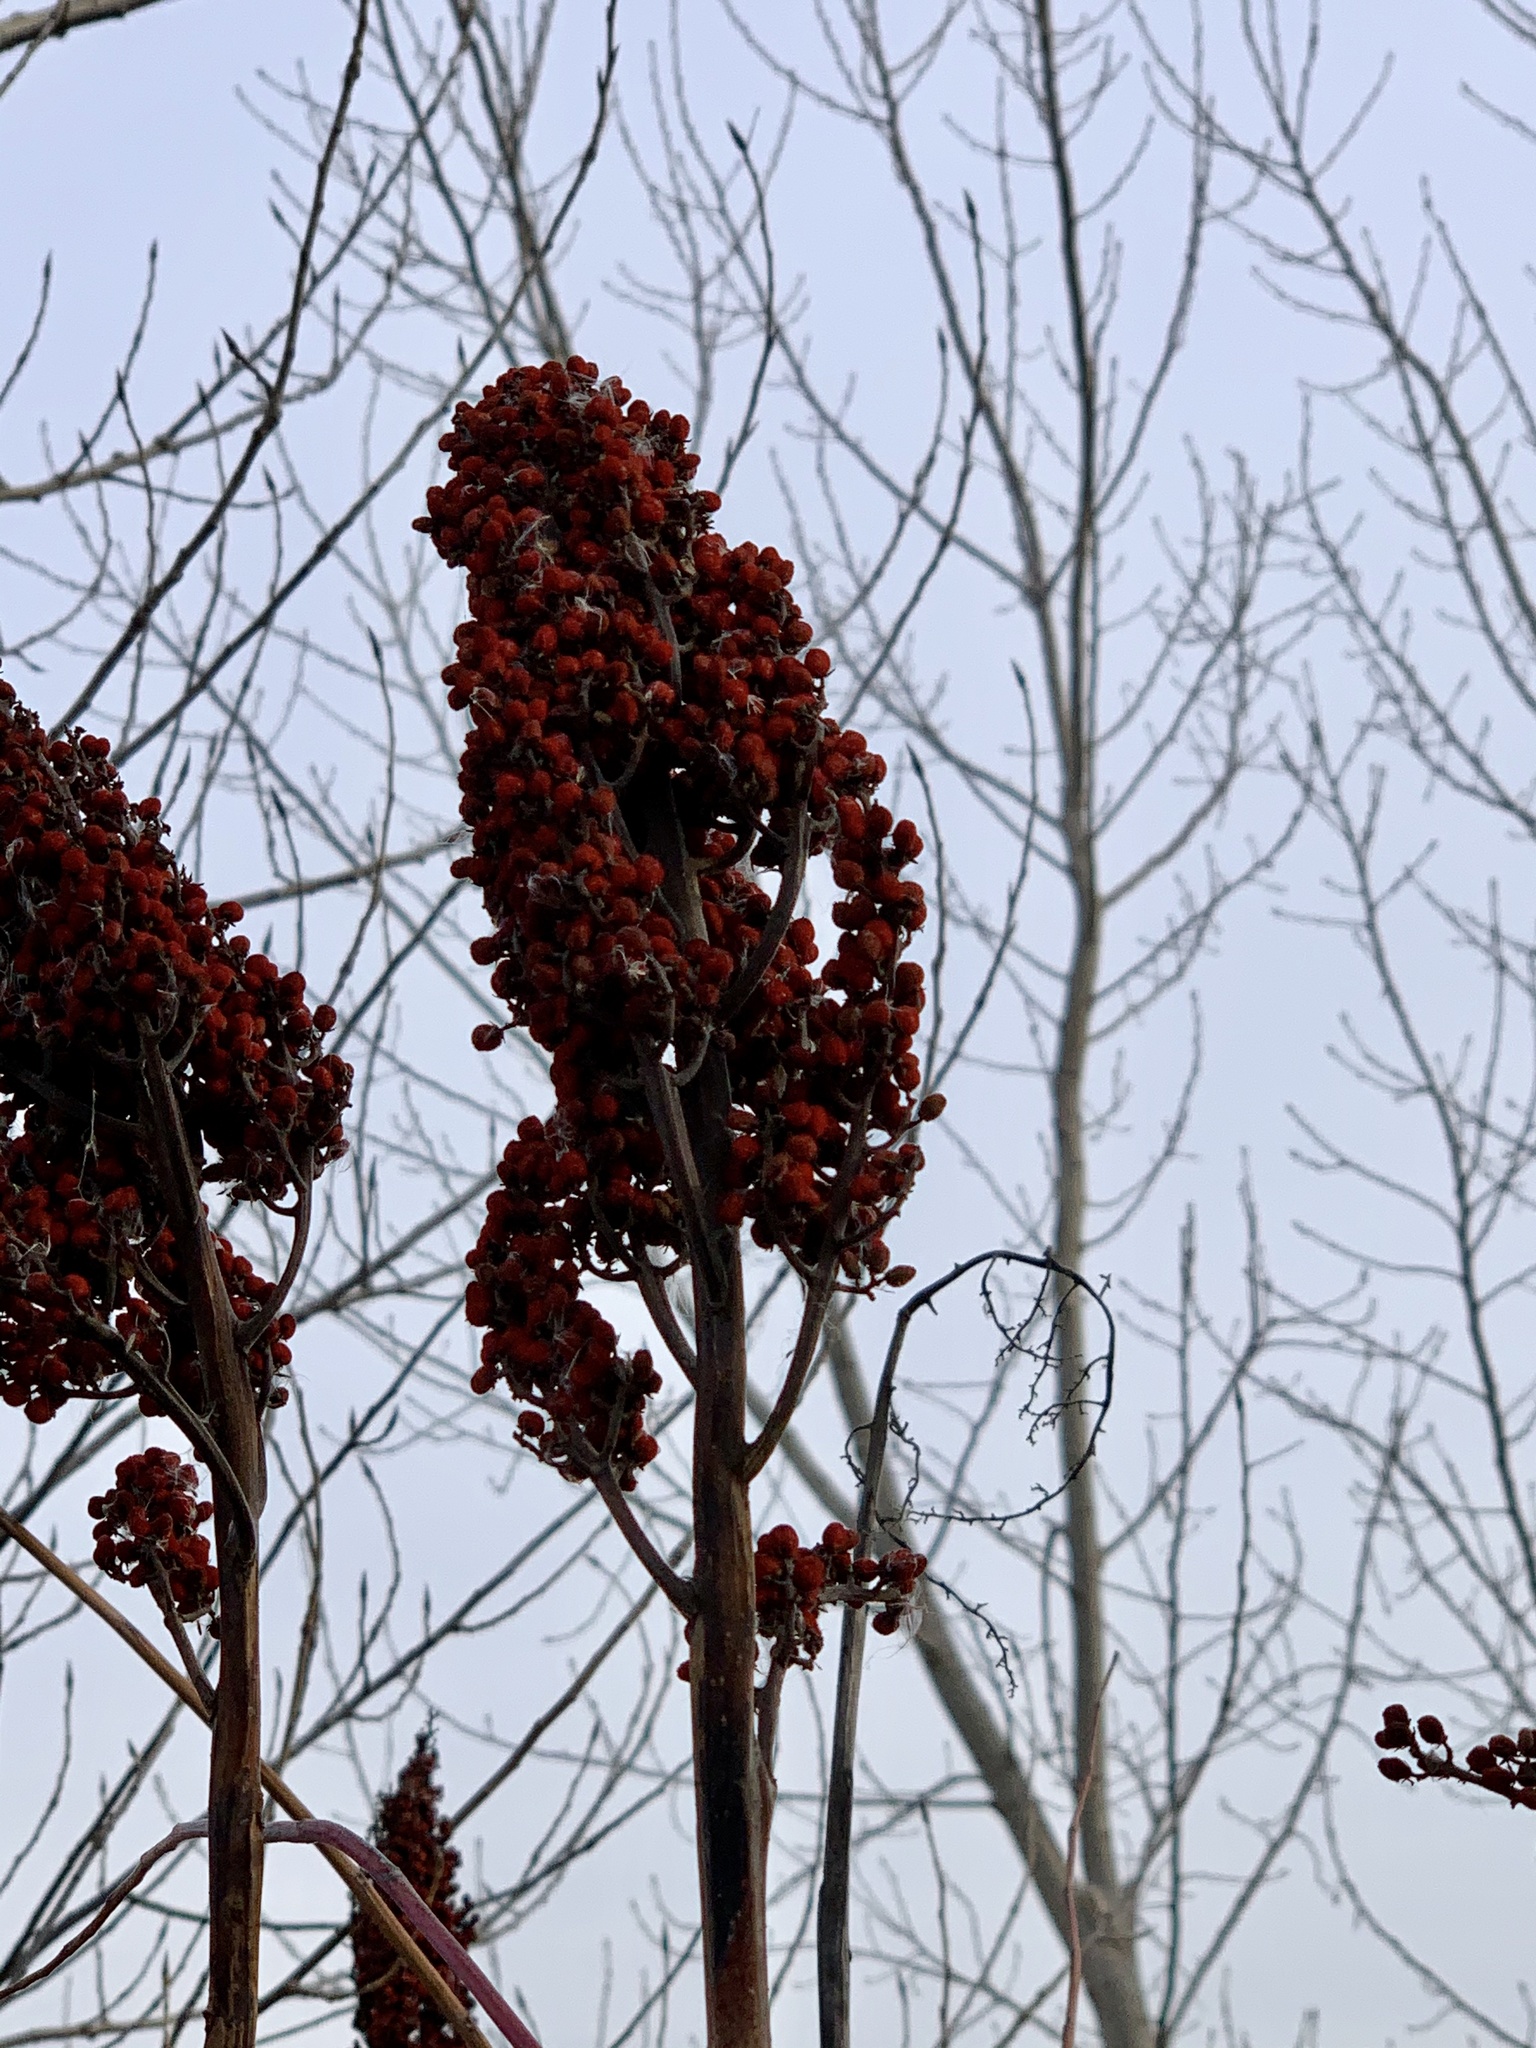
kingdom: Plantae
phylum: Tracheophyta
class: Magnoliopsida
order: Sapindales
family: Anacardiaceae
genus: Rhus
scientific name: Rhus glabra
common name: Scarlet sumac
